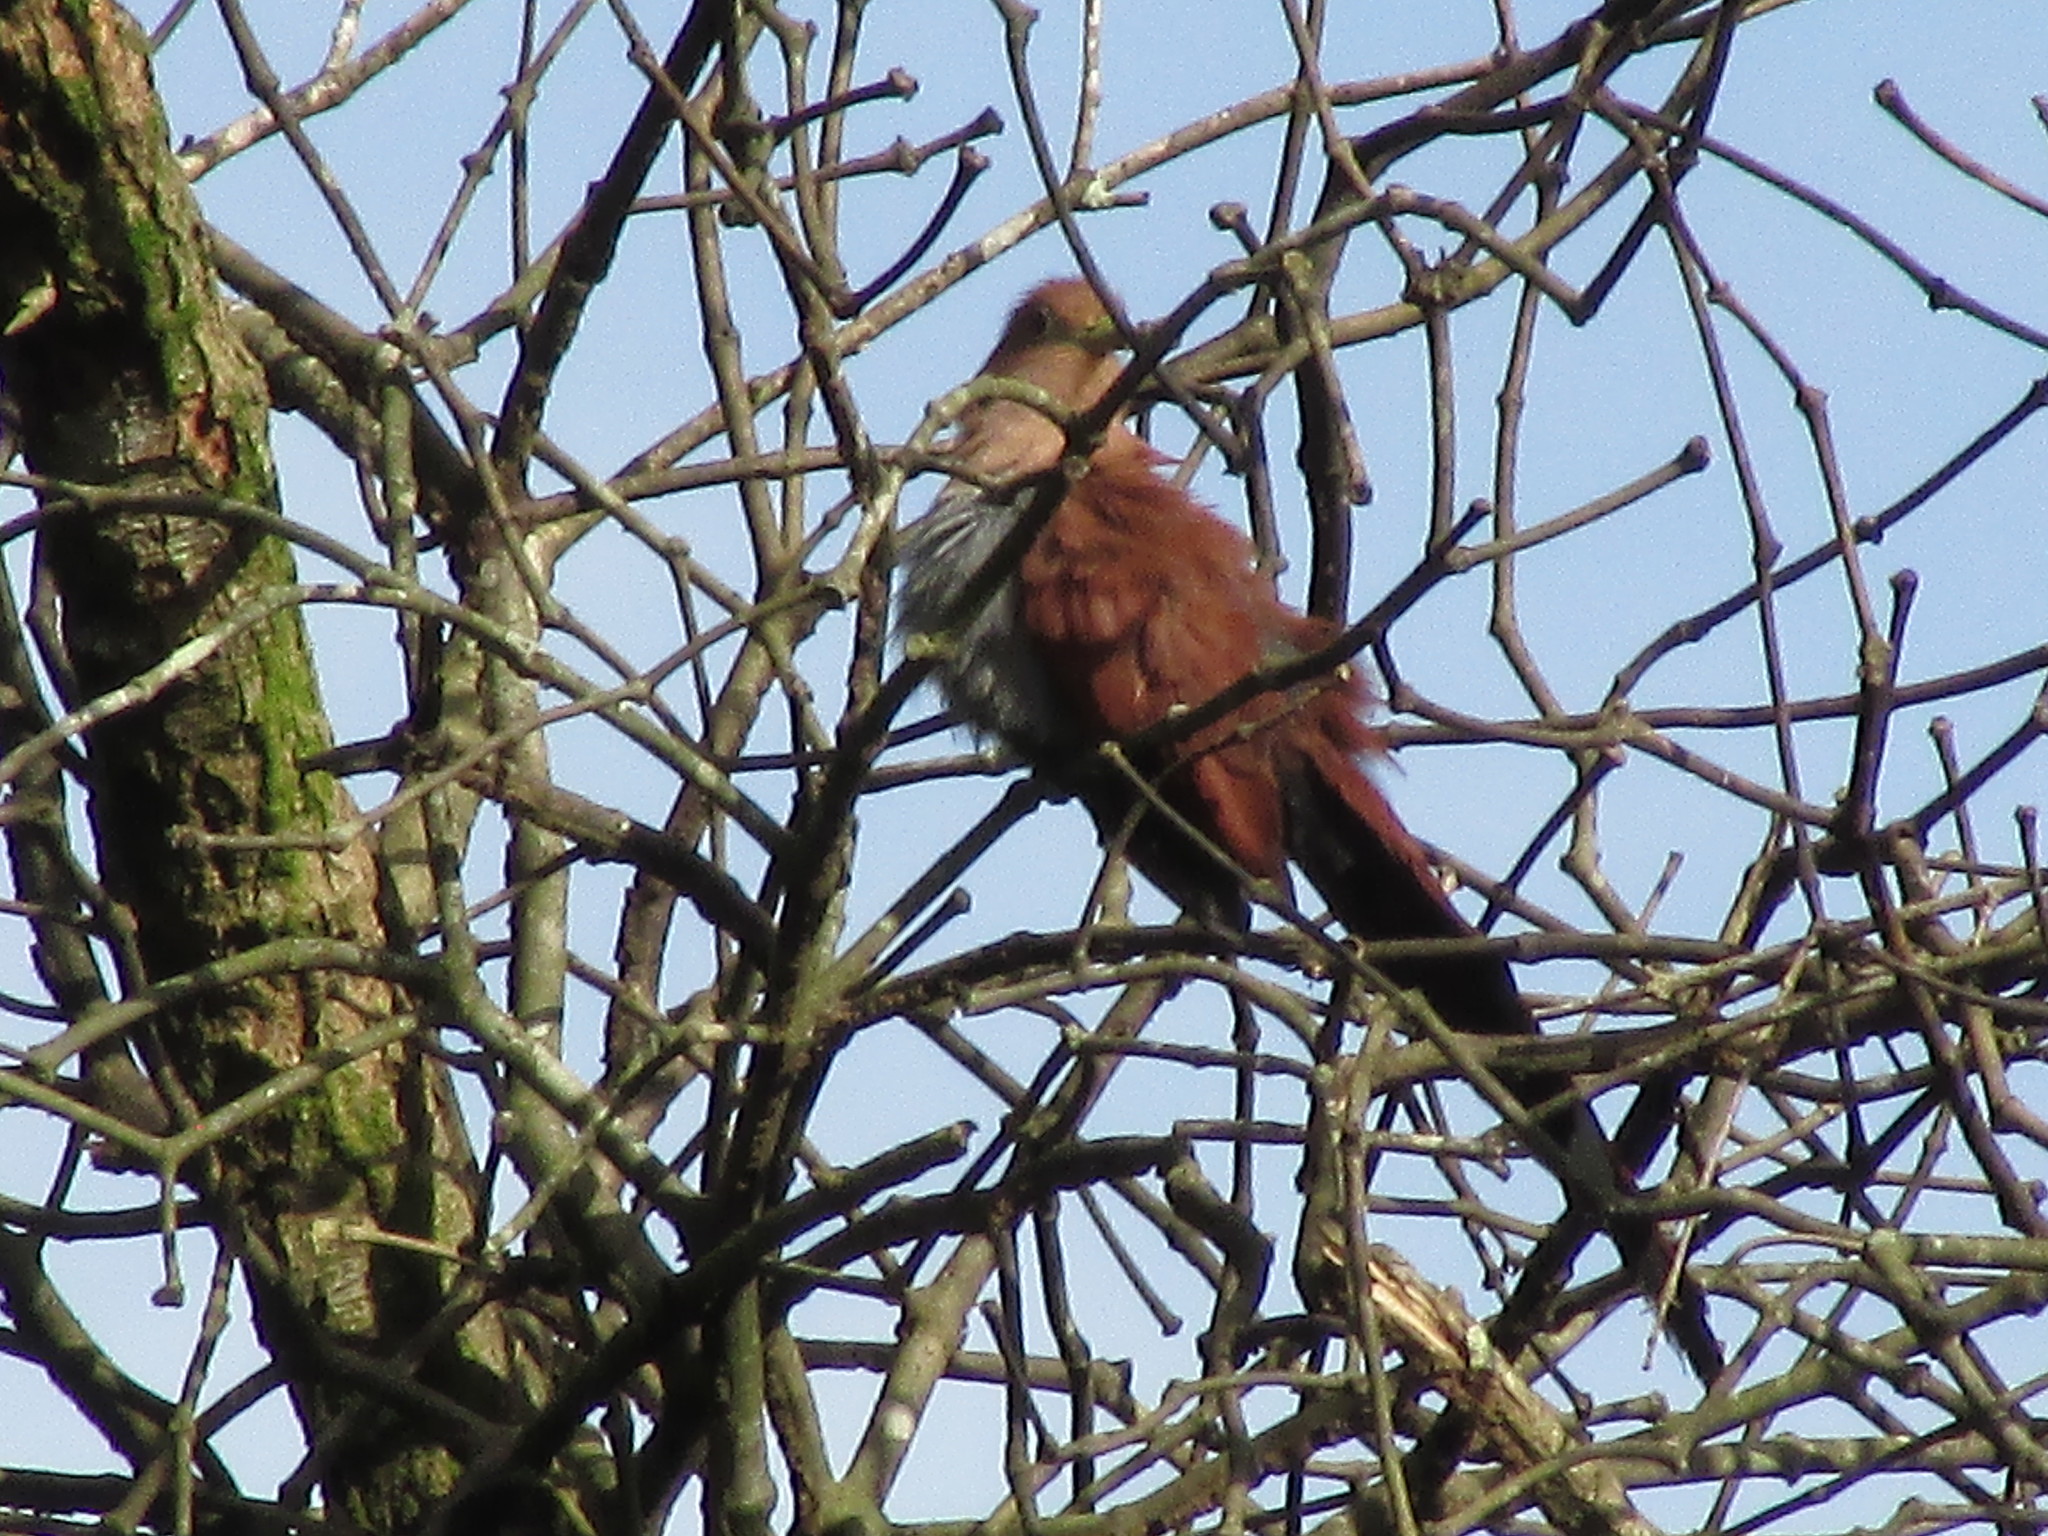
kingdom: Animalia
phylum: Chordata
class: Aves
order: Cuculiformes
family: Cuculidae
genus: Piaya
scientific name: Piaya cayana
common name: Squirrel cuckoo
